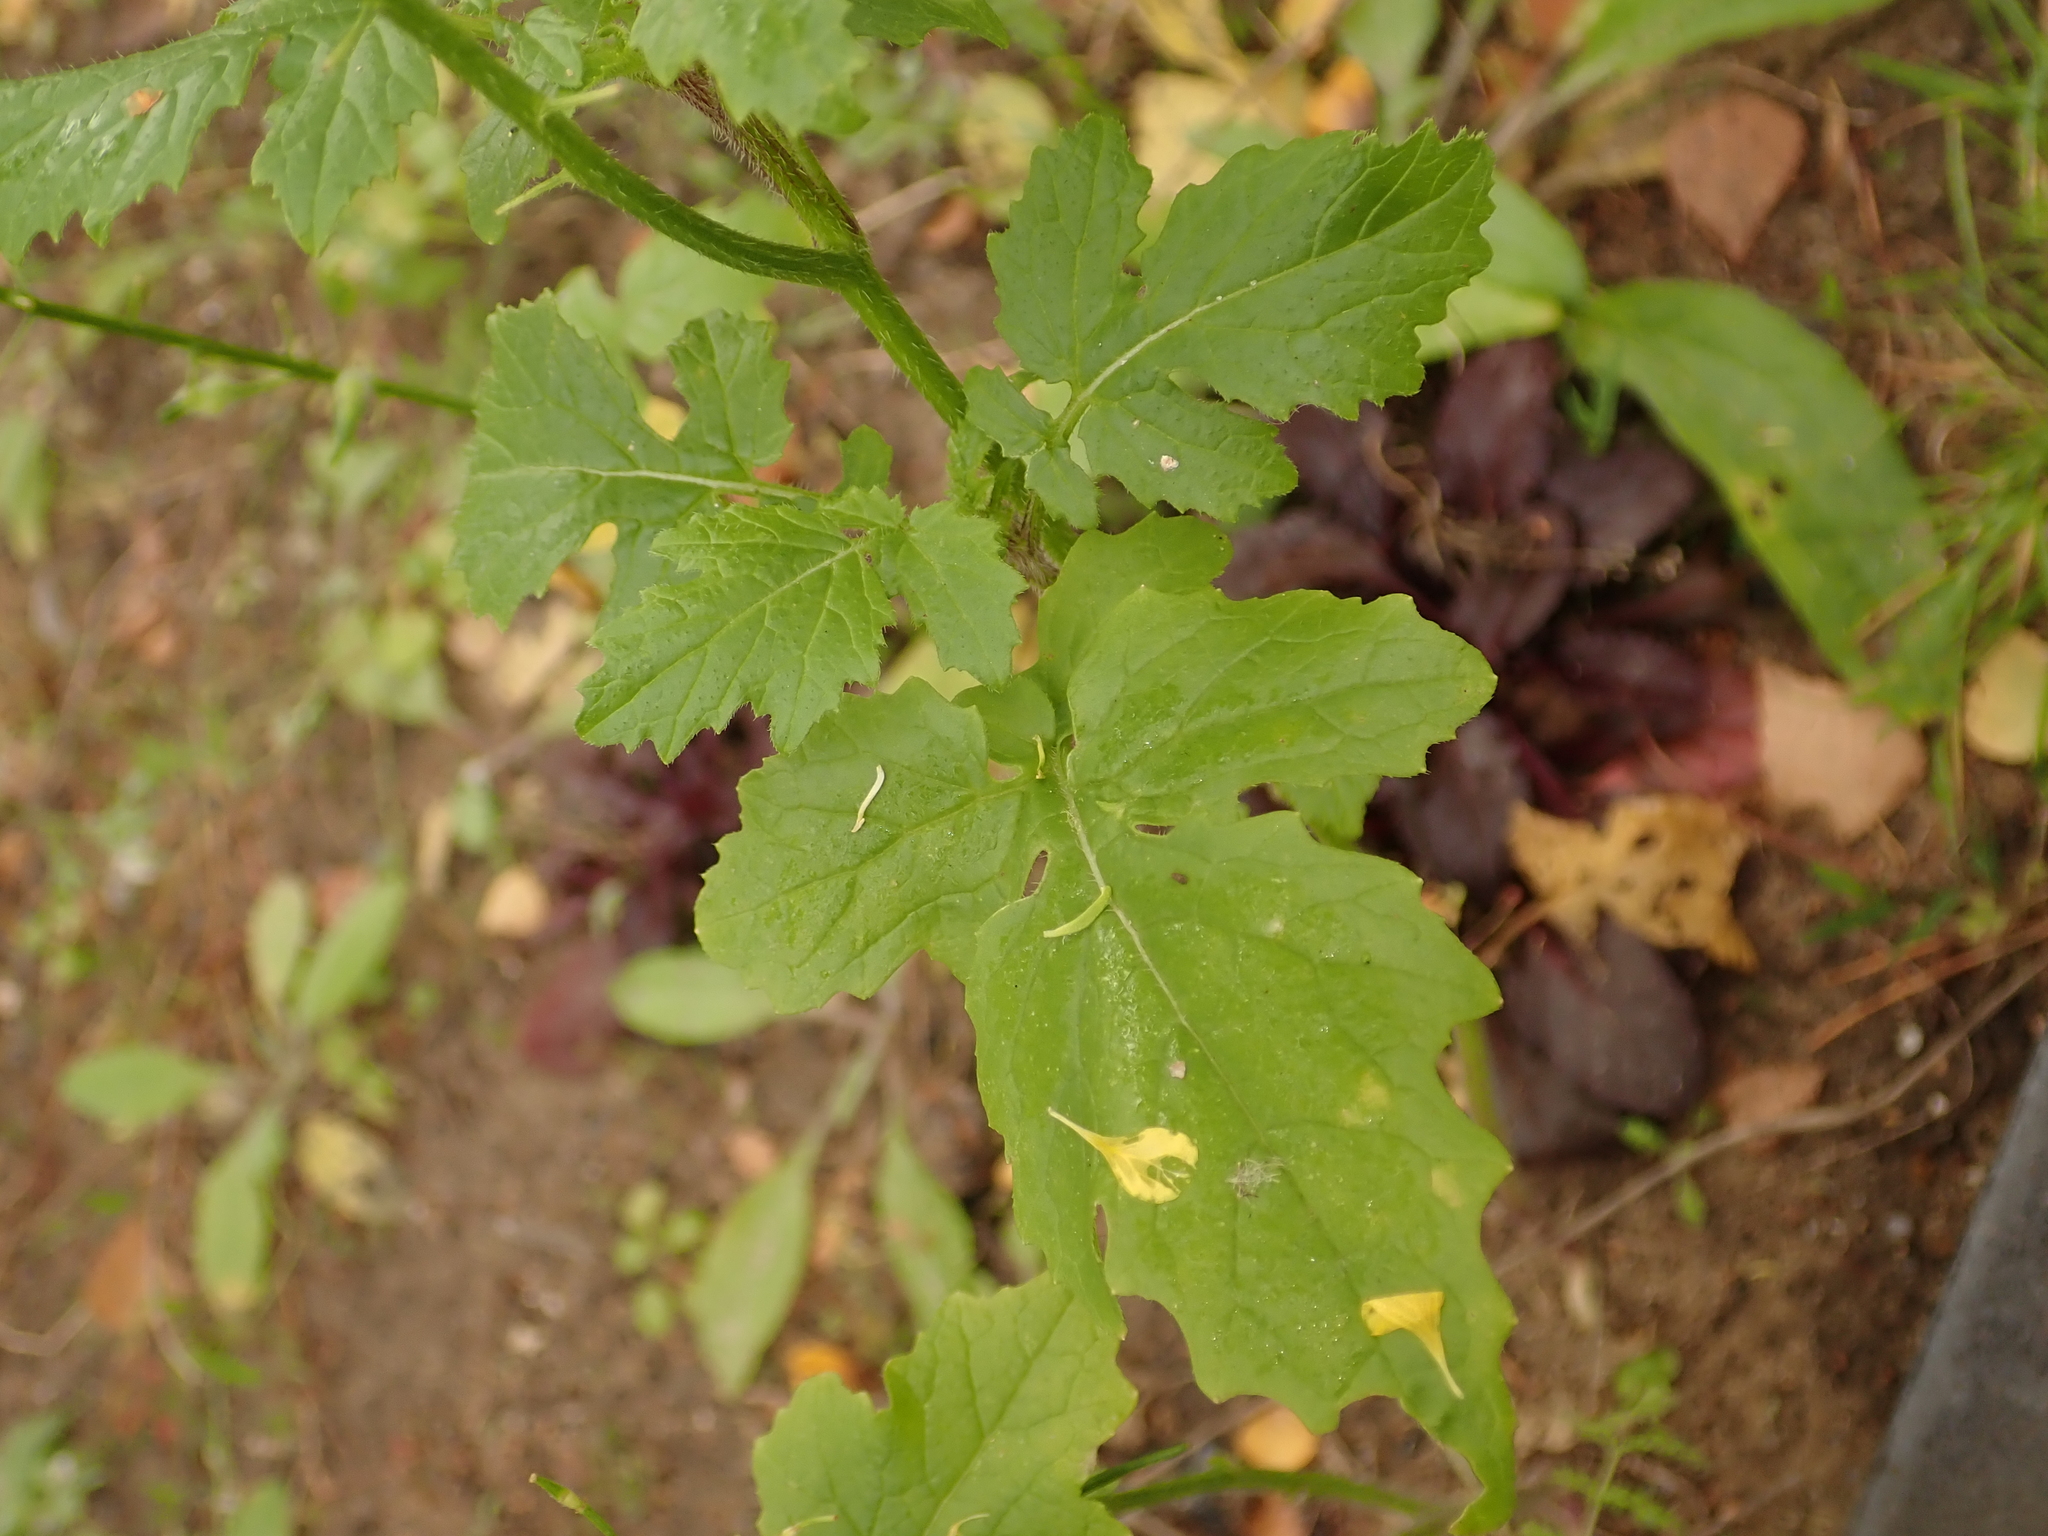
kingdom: Plantae
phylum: Tracheophyta
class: Magnoliopsida
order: Brassicales
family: Brassicaceae
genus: Sinapis
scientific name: Sinapis alba
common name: White mustard
